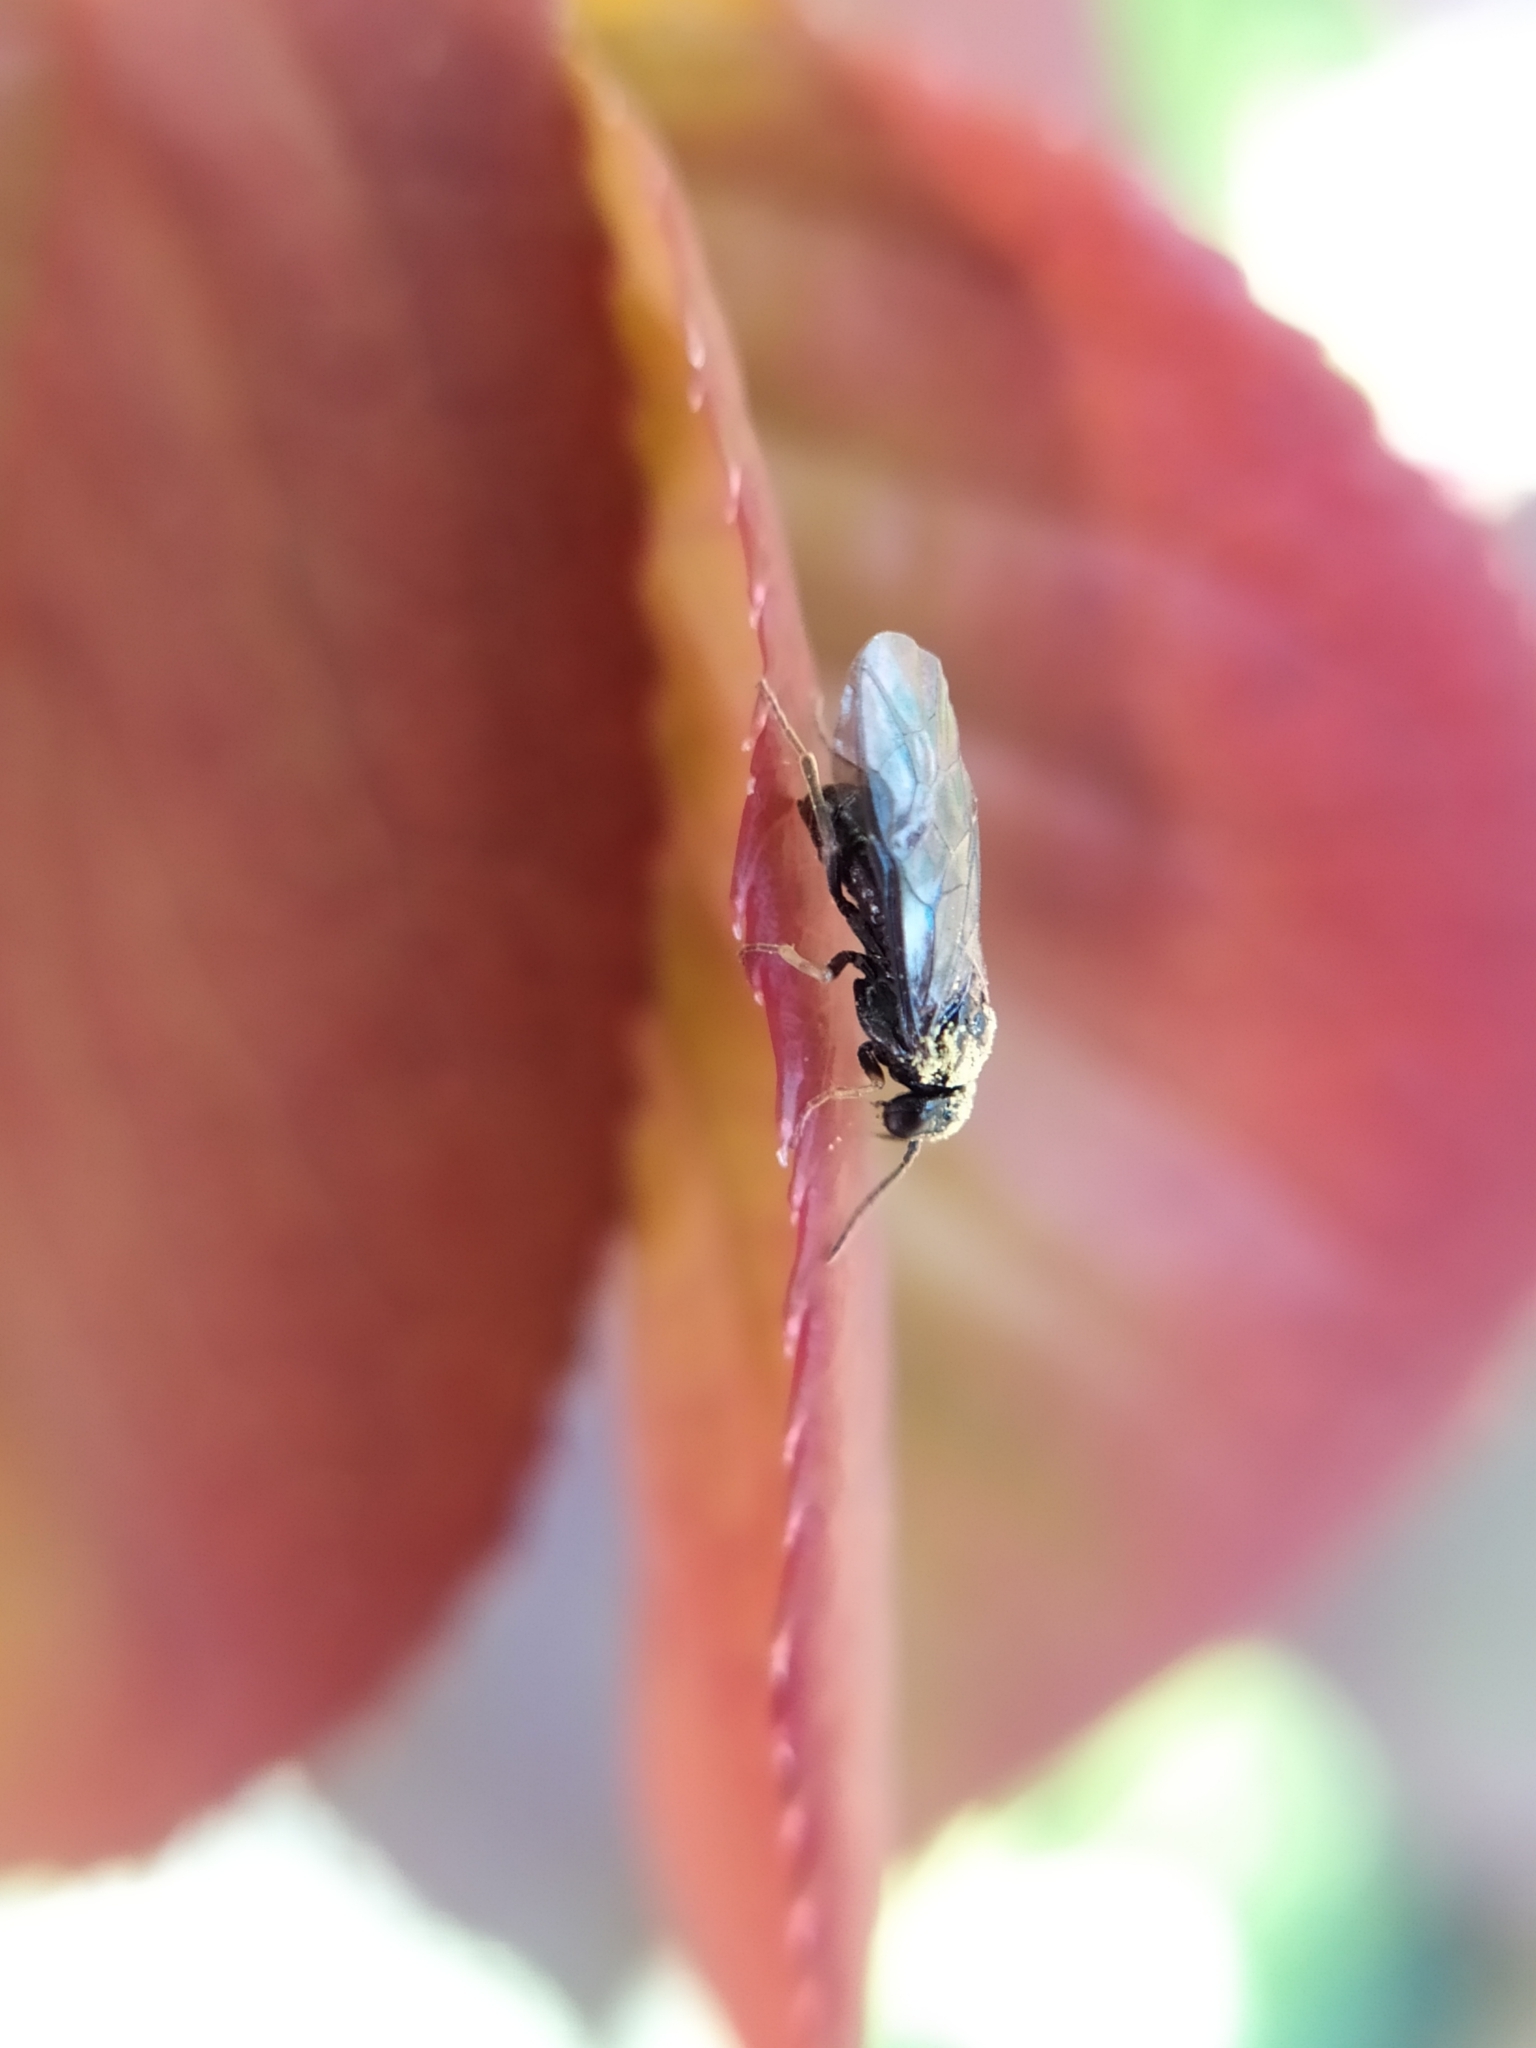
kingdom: Animalia
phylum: Arthropoda
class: Insecta
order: Hymenoptera
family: Tenthredinidae
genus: Blennocampa
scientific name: Blennocampa phyllocolpa
